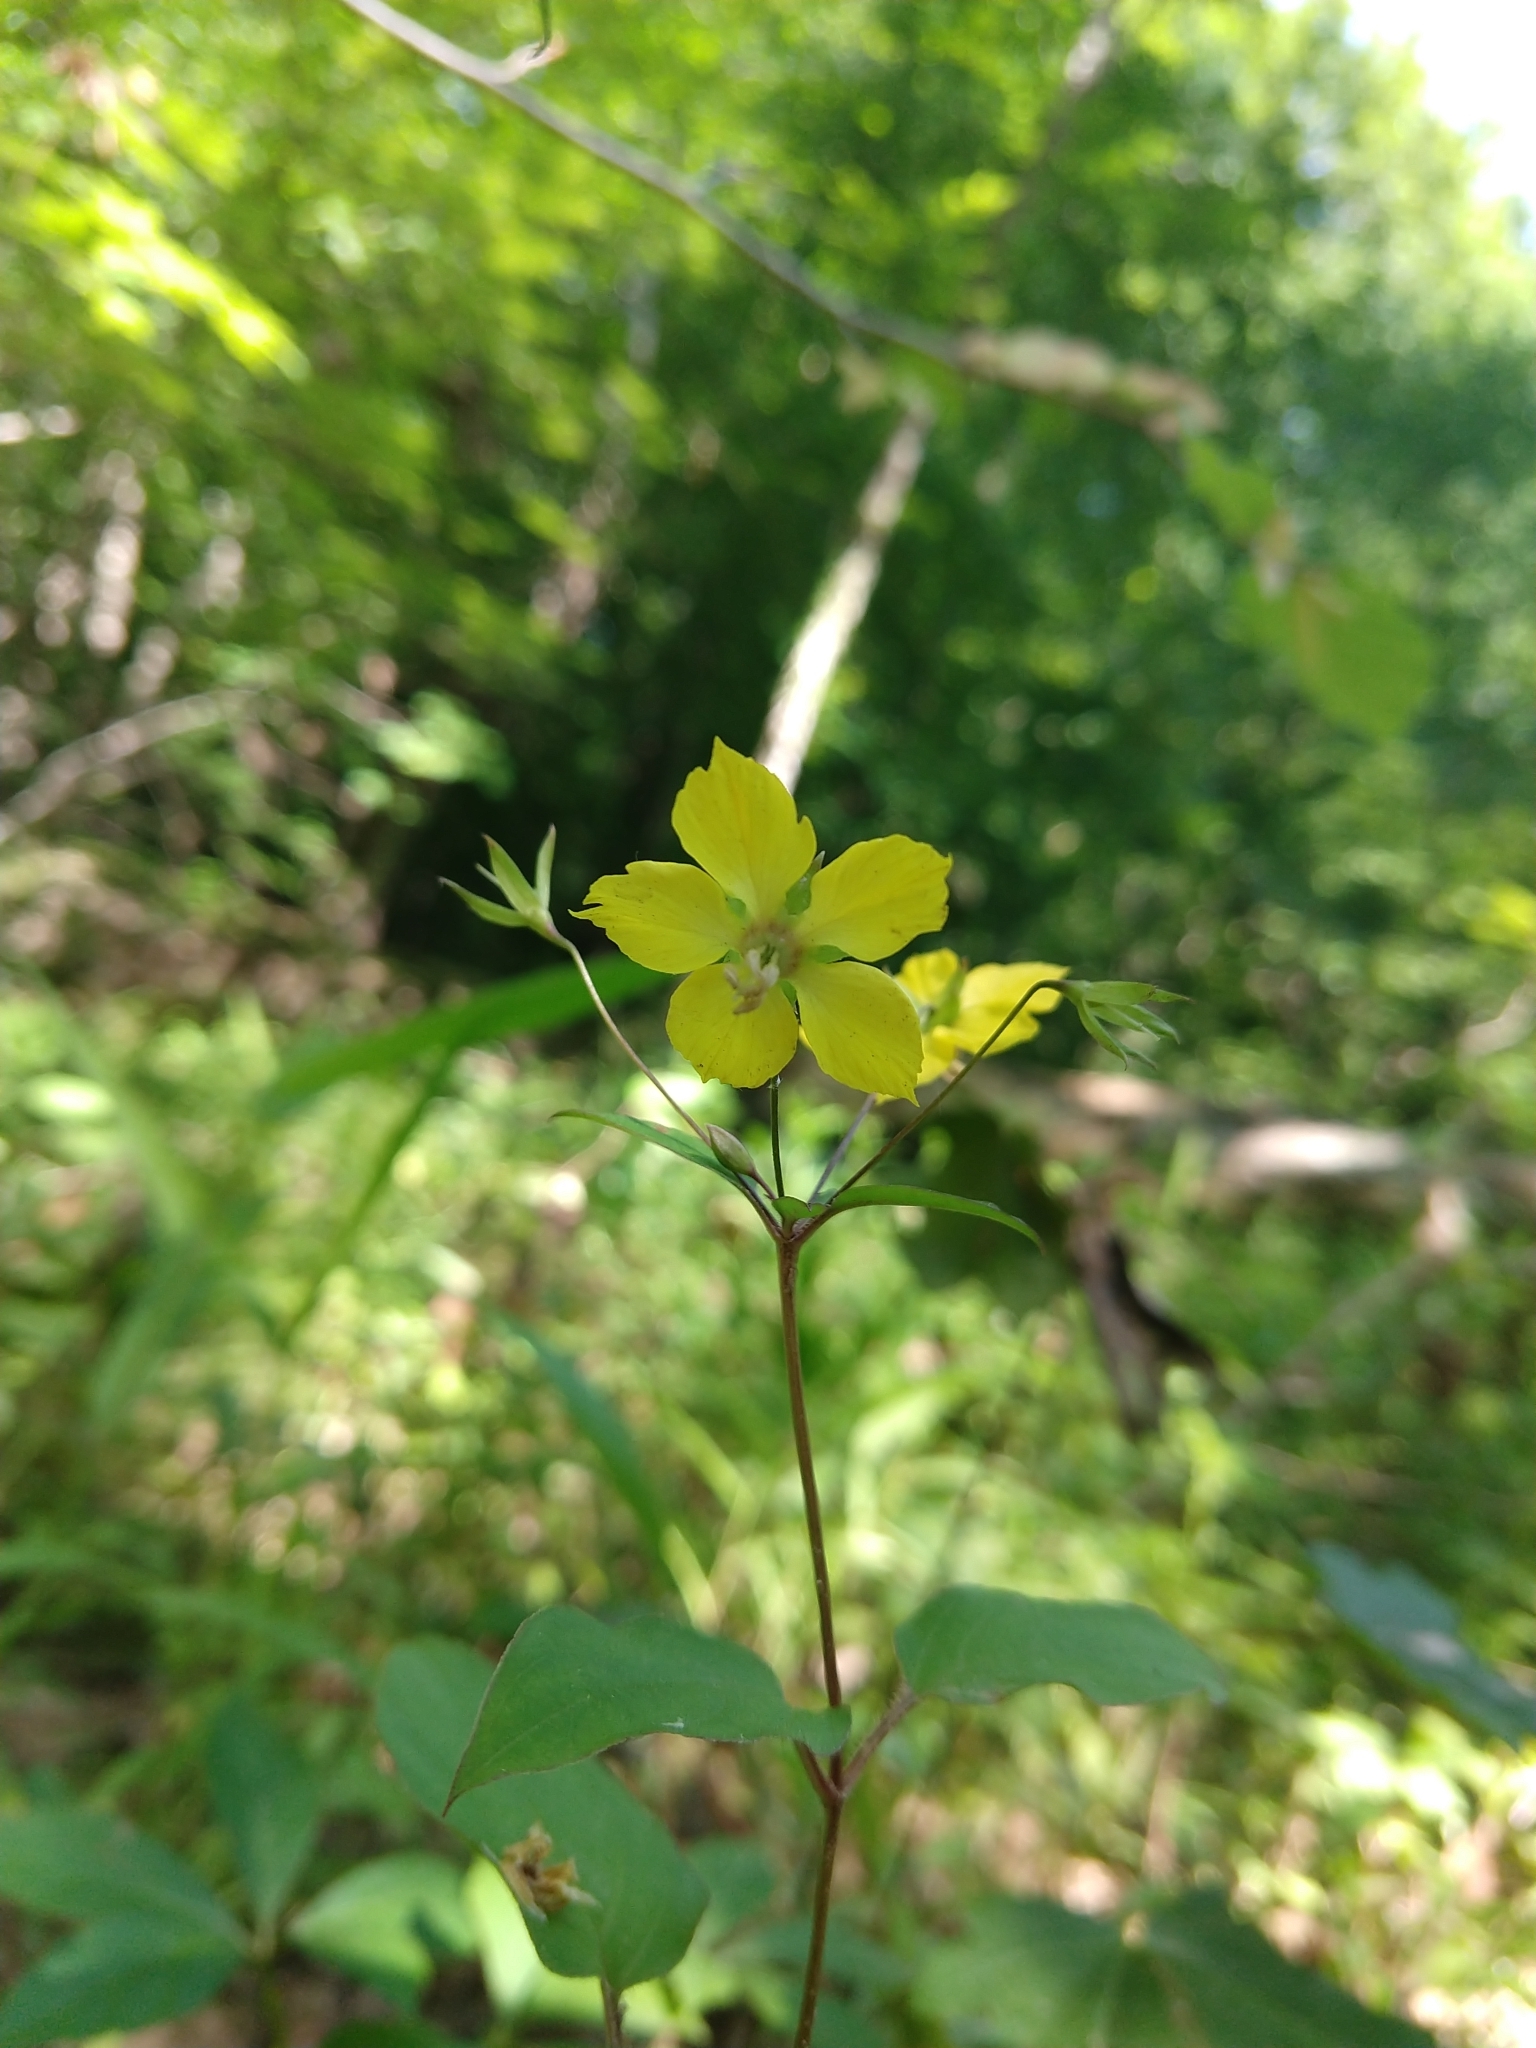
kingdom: Plantae
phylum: Tracheophyta
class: Magnoliopsida
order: Ericales
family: Primulaceae
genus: Lysimachia
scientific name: Lysimachia ciliata
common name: Fringed loosestrife
